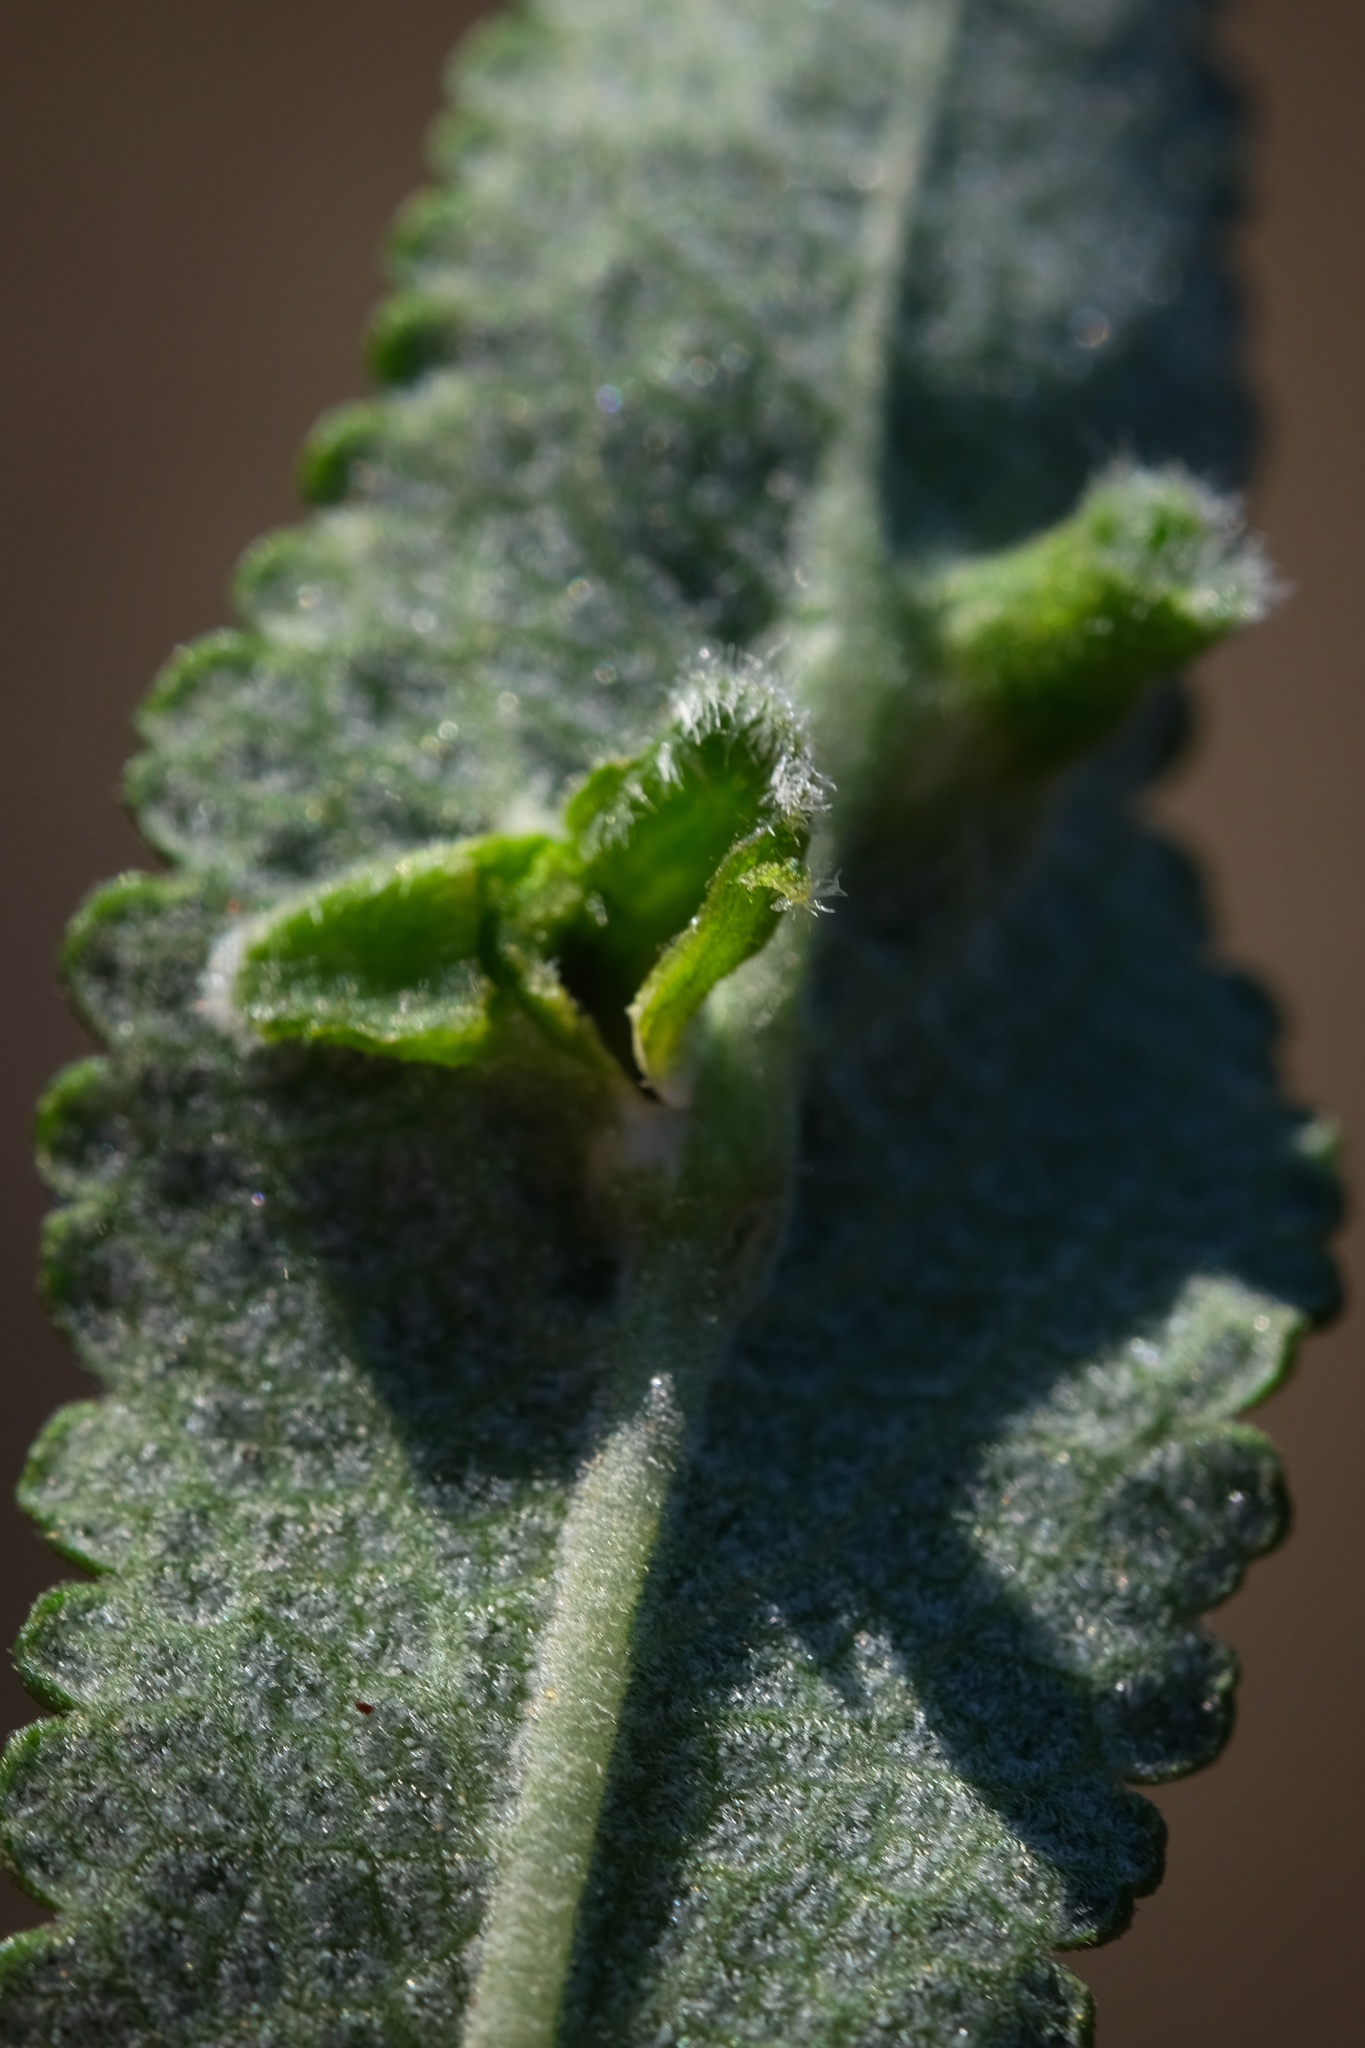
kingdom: Animalia
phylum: Arthropoda
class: Insecta
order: Diptera
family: Cecidomyiidae
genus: Rhopalomyia
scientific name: Rhopalomyia audibertiae
